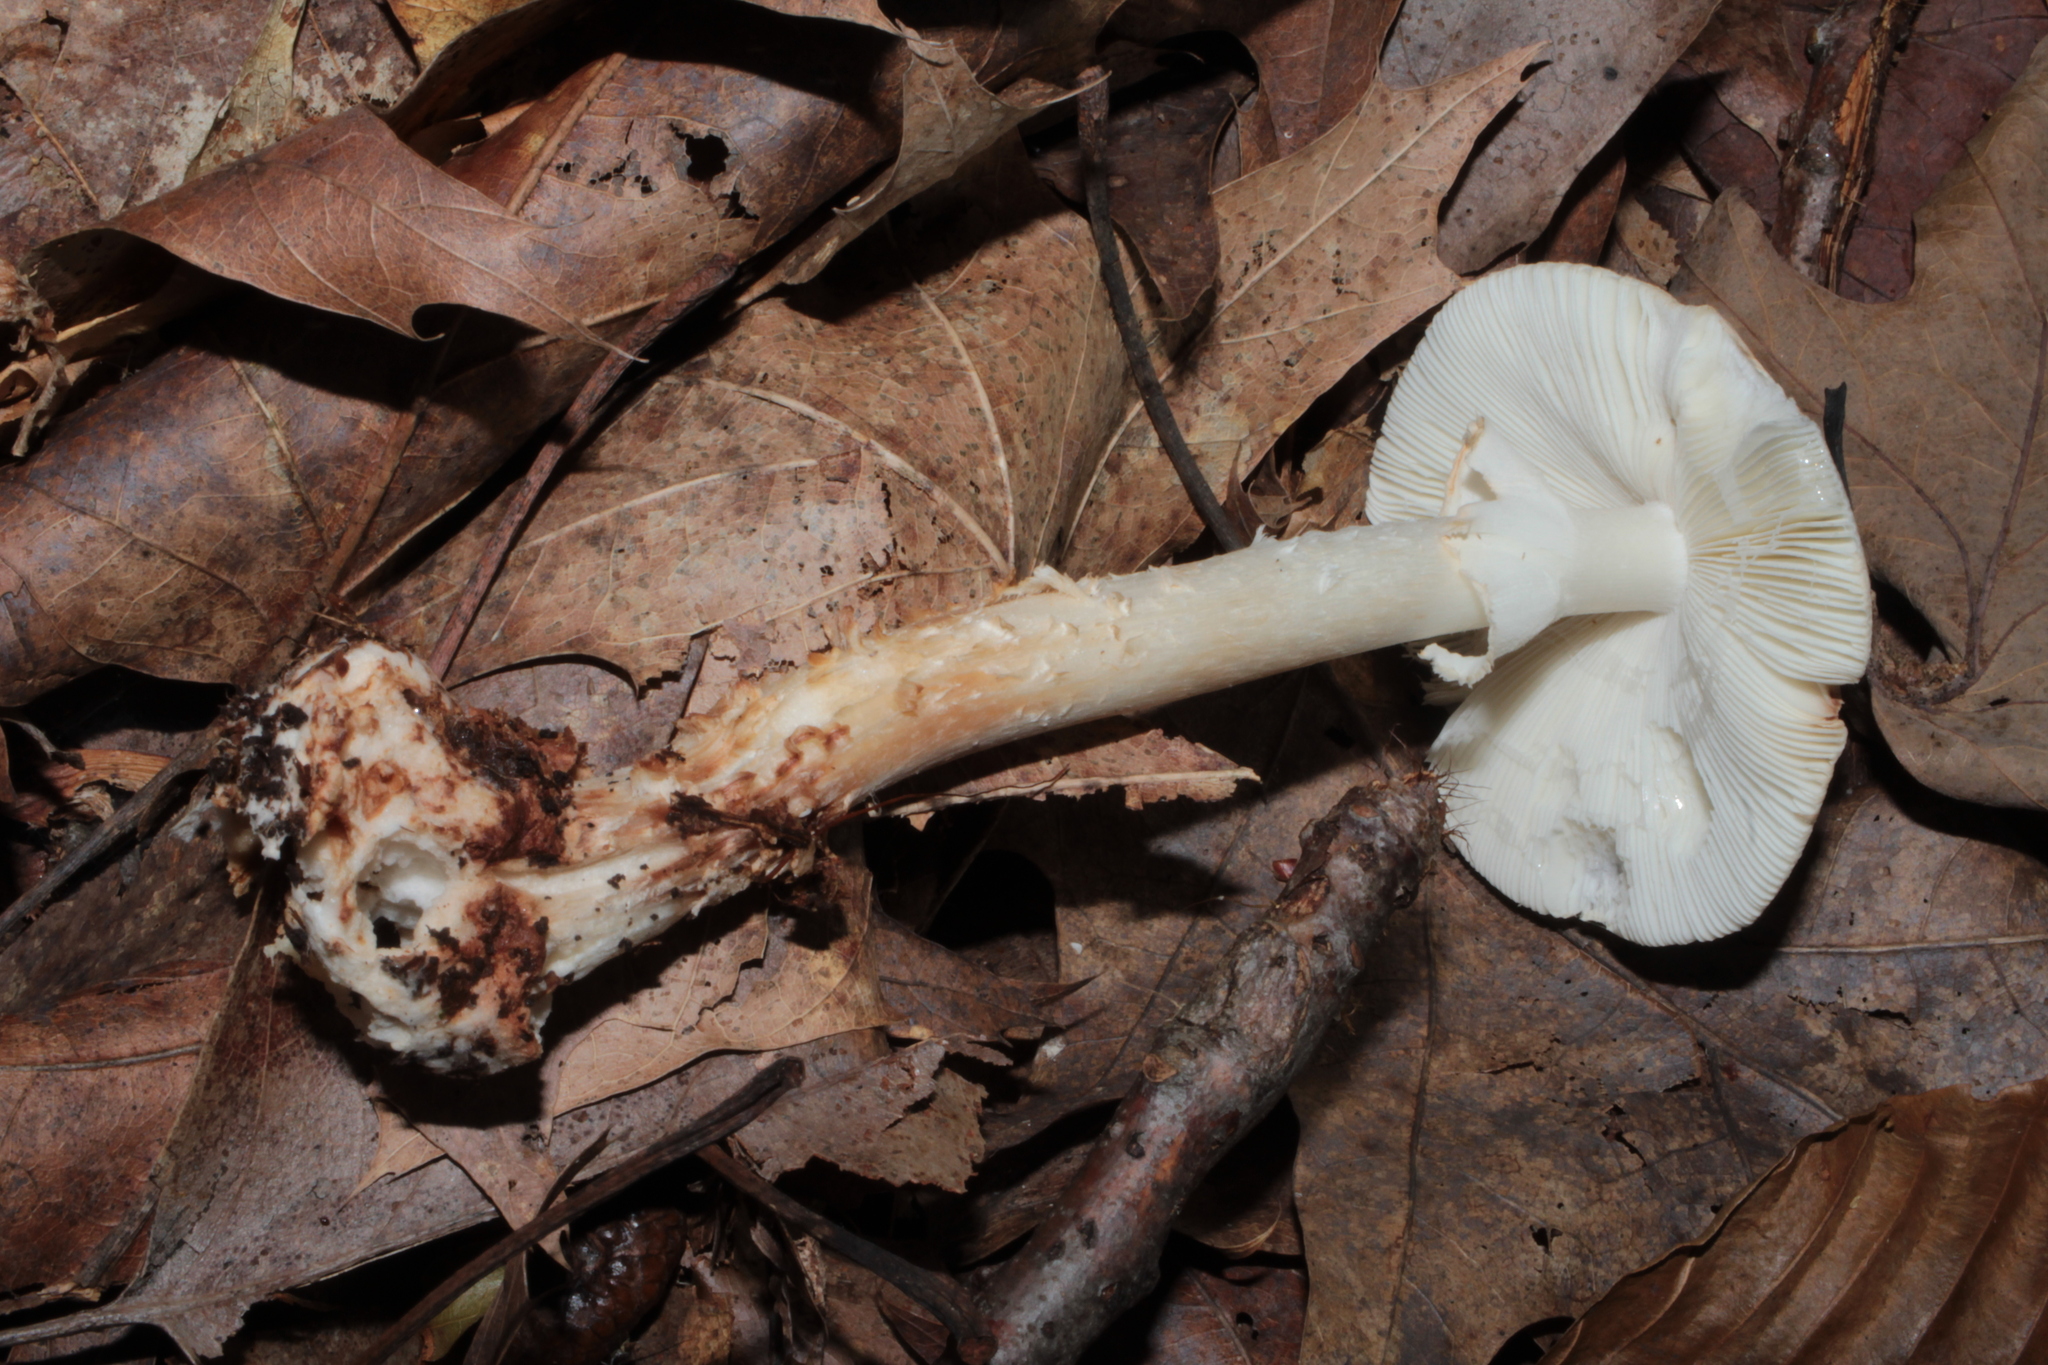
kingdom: Fungi
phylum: Basidiomycota
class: Agaricomycetes
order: Agaricales
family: Amanitaceae
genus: Amanita
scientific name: Amanita brunnescens
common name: Brown american star-footed amanita
